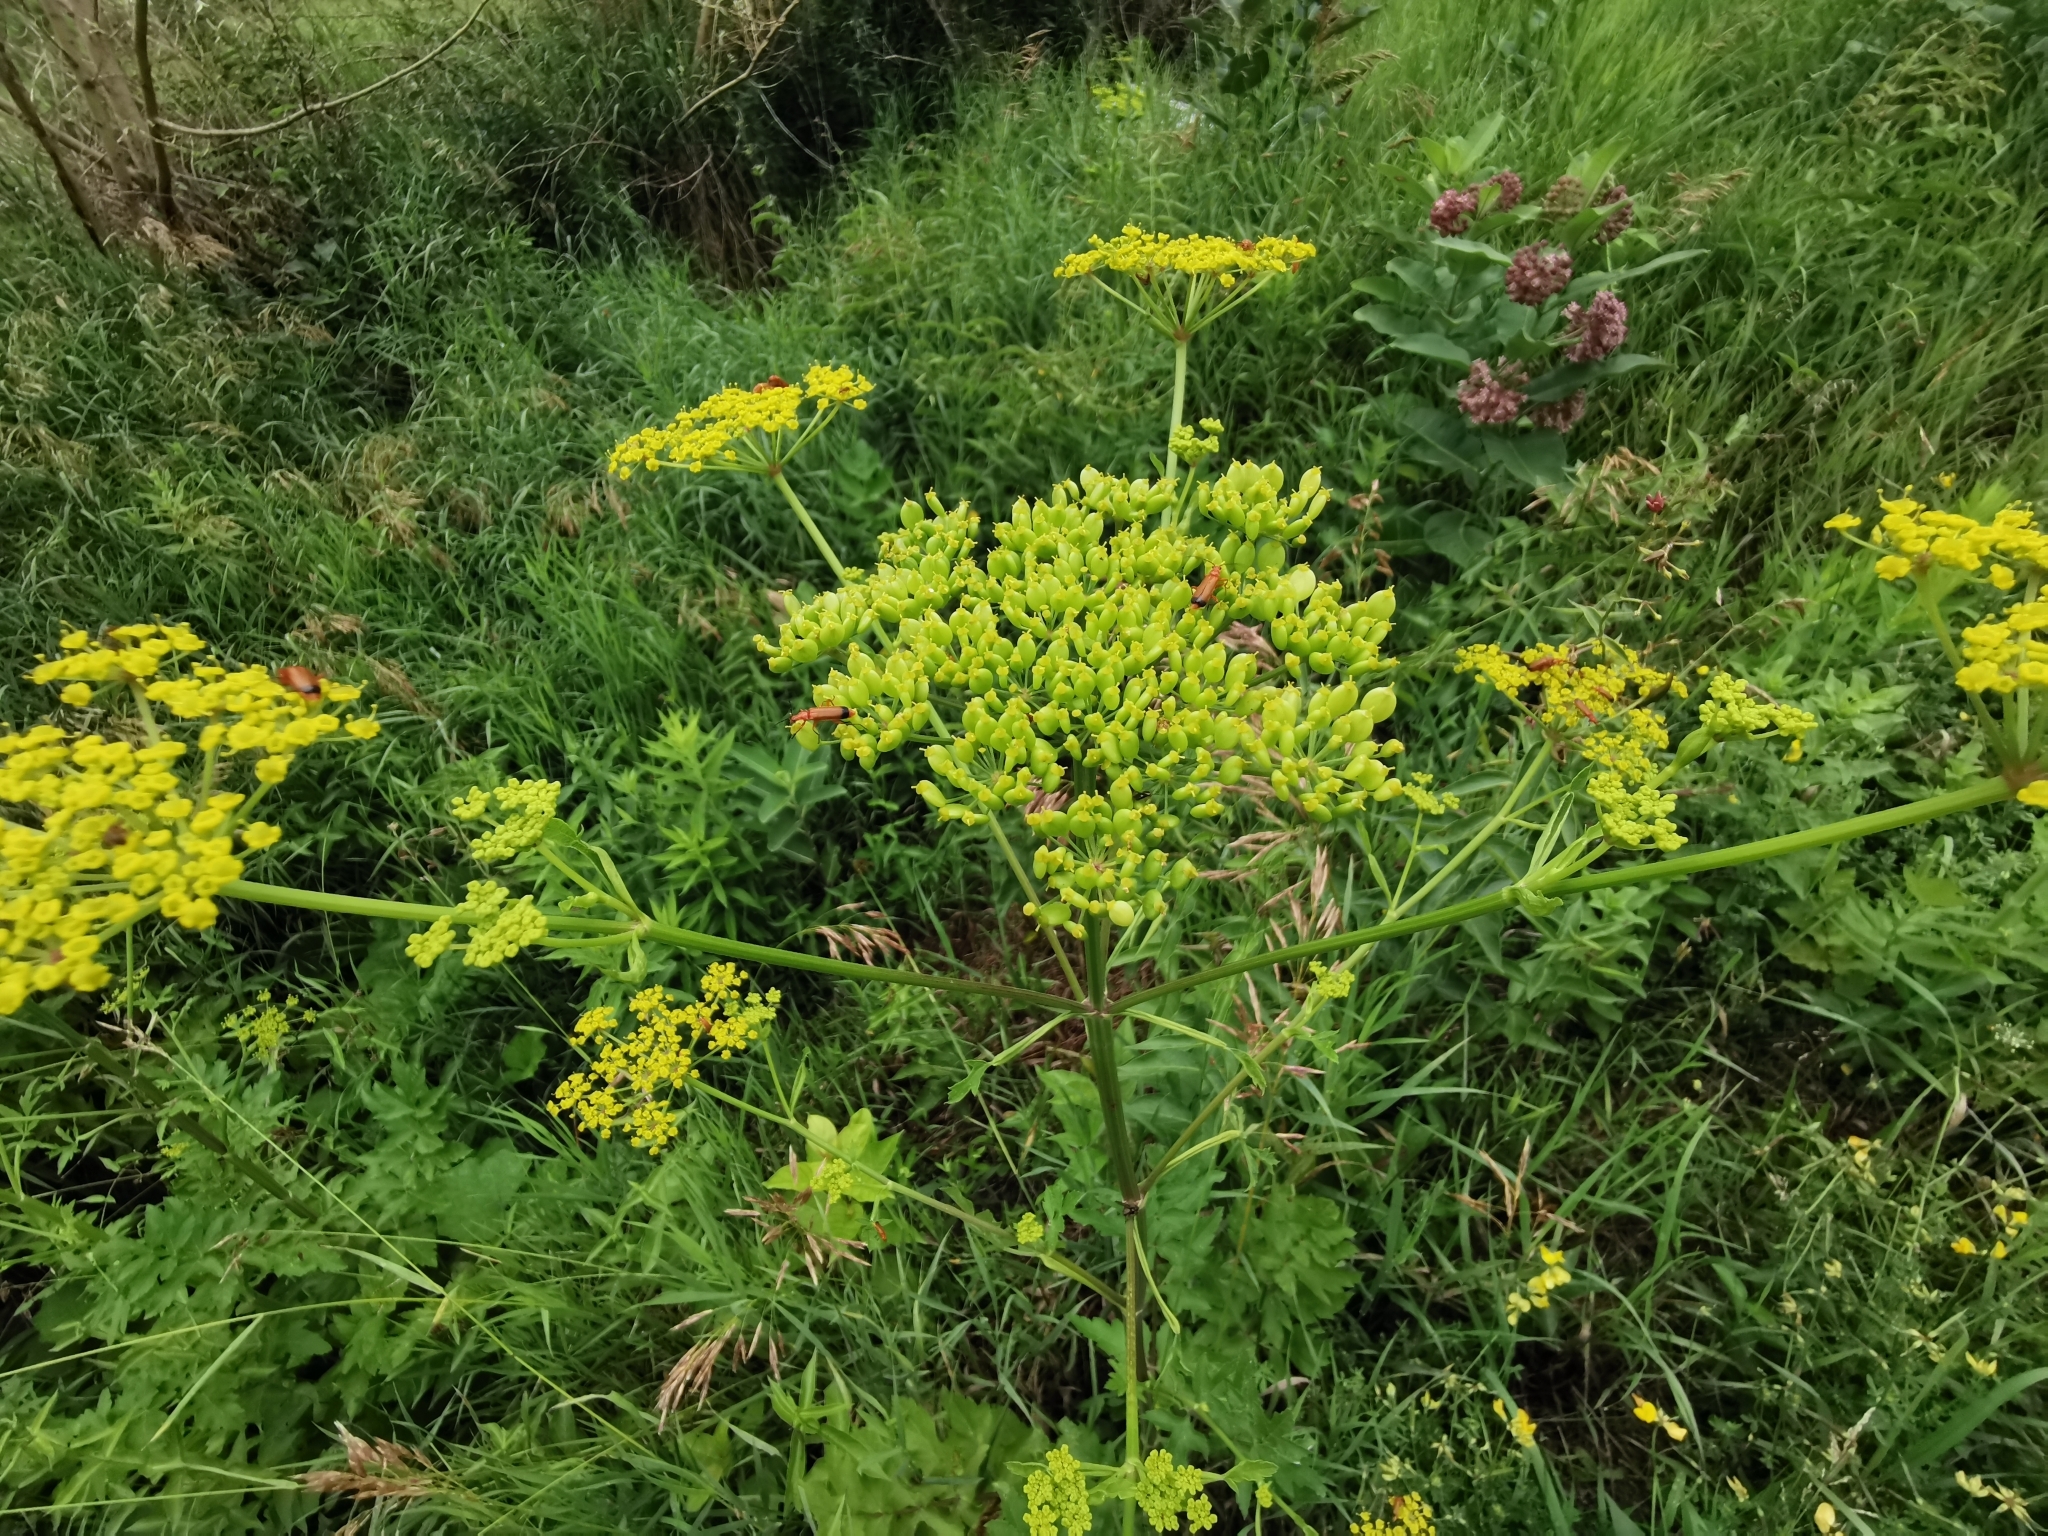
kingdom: Plantae
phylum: Tracheophyta
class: Magnoliopsida
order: Apiales
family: Apiaceae
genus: Pastinaca
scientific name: Pastinaca sativa
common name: Wild parsnip
